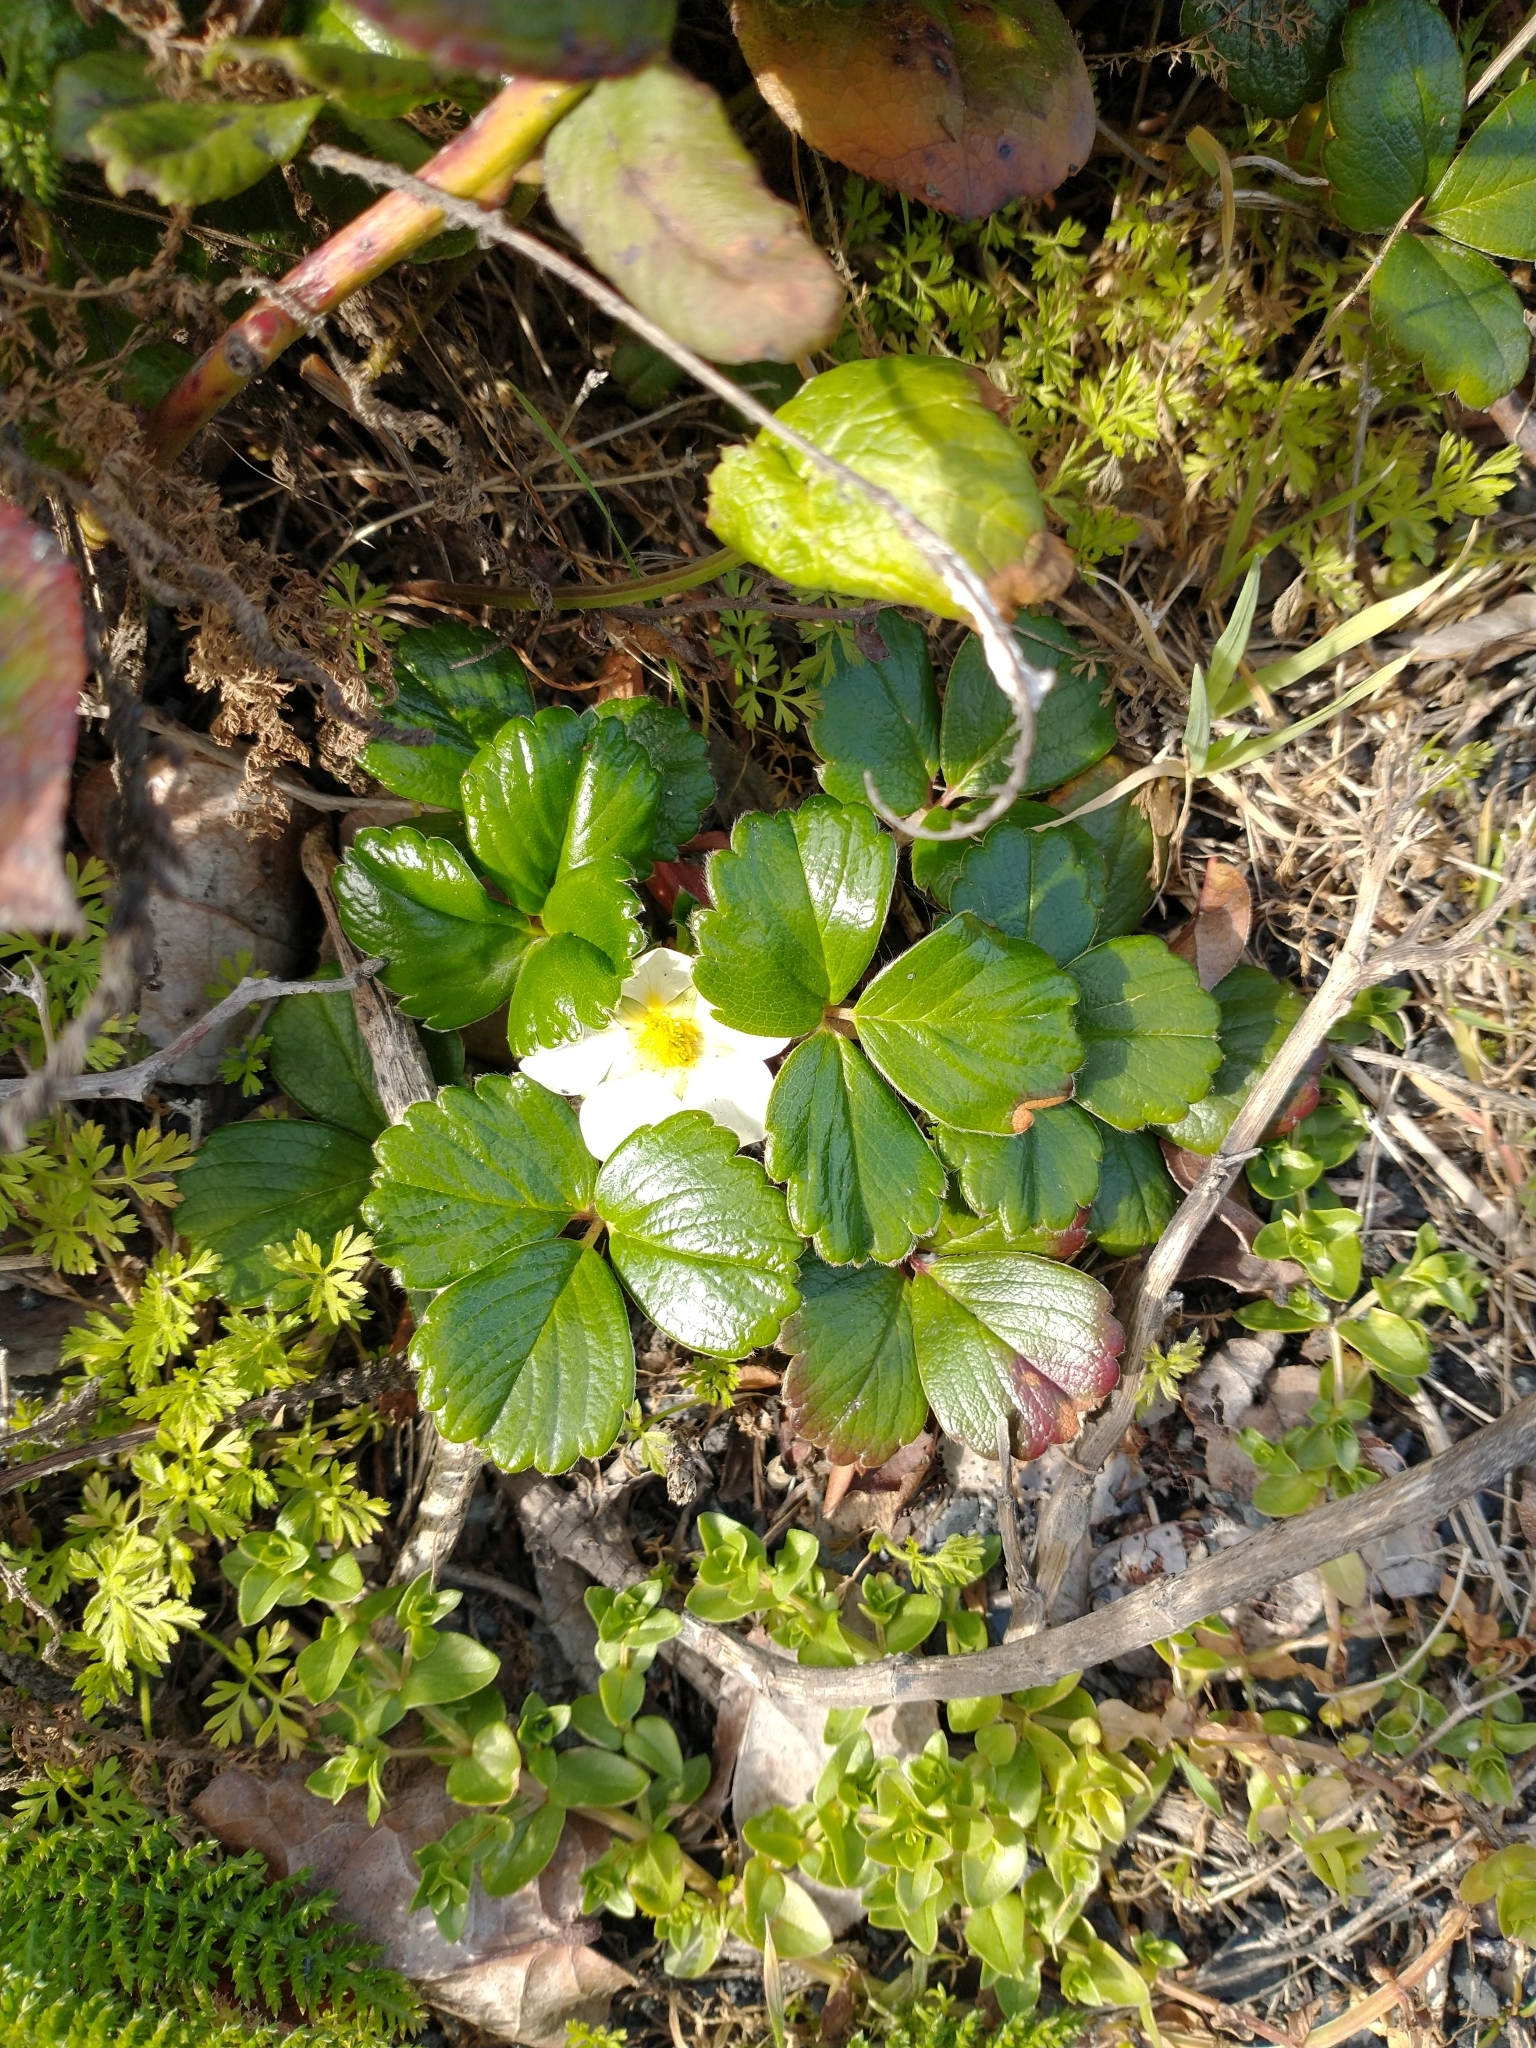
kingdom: Plantae
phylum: Tracheophyta
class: Magnoliopsida
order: Rosales
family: Rosaceae
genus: Fragaria
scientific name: Fragaria chiloensis
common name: Beach strawberry
